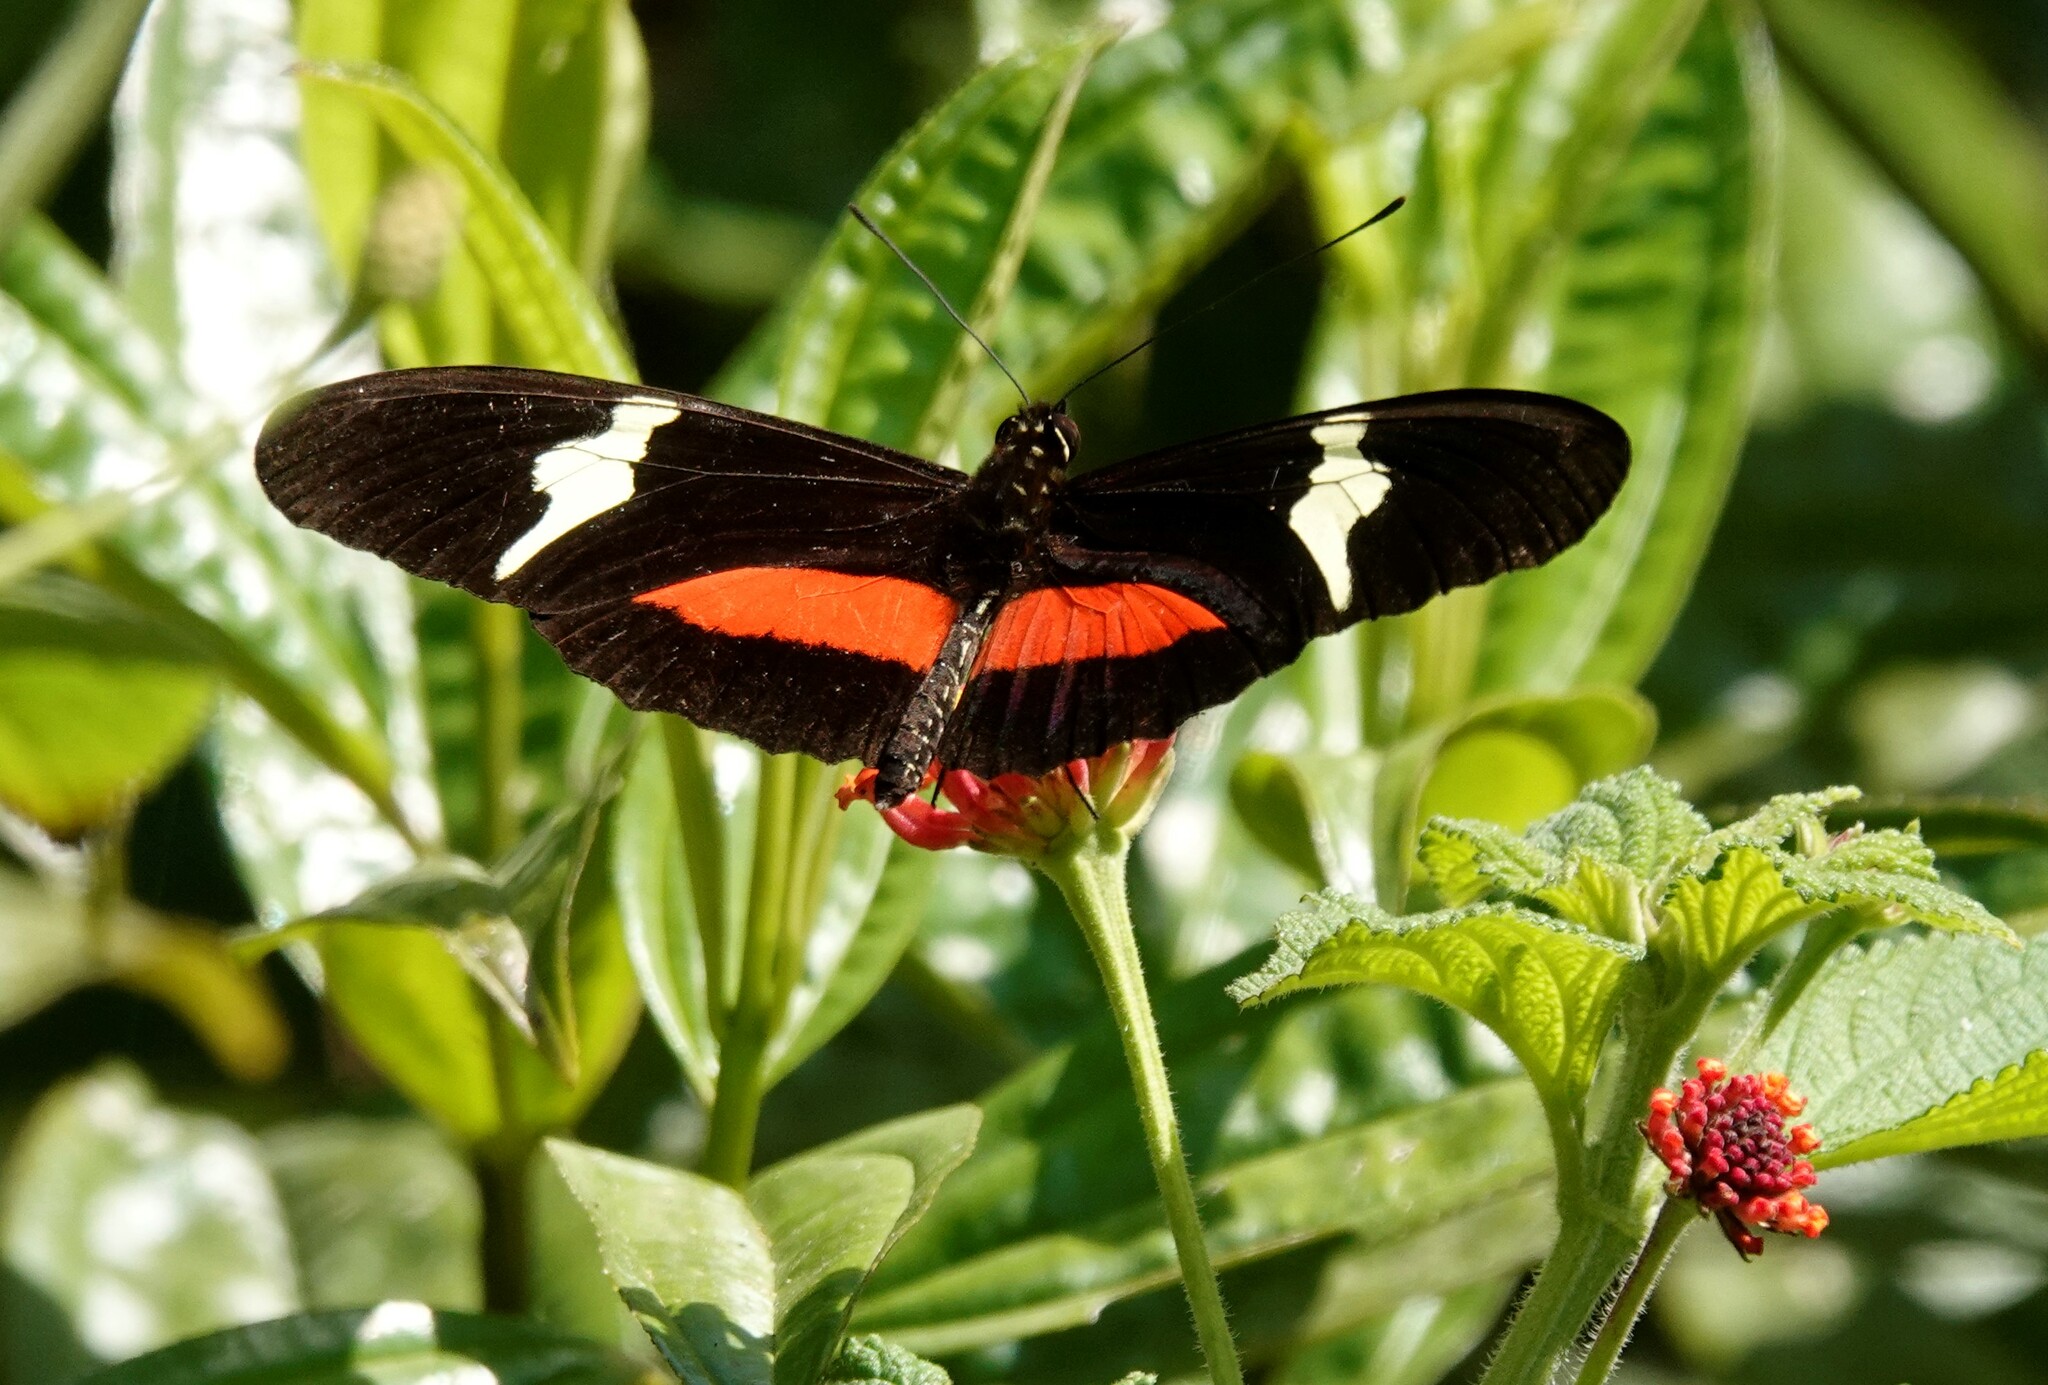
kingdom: Animalia
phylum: Arthropoda
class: Insecta
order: Lepidoptera
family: Nymphalidae
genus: Heliconius
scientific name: Heliconius clysonymus
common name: Clysonymus longwing
